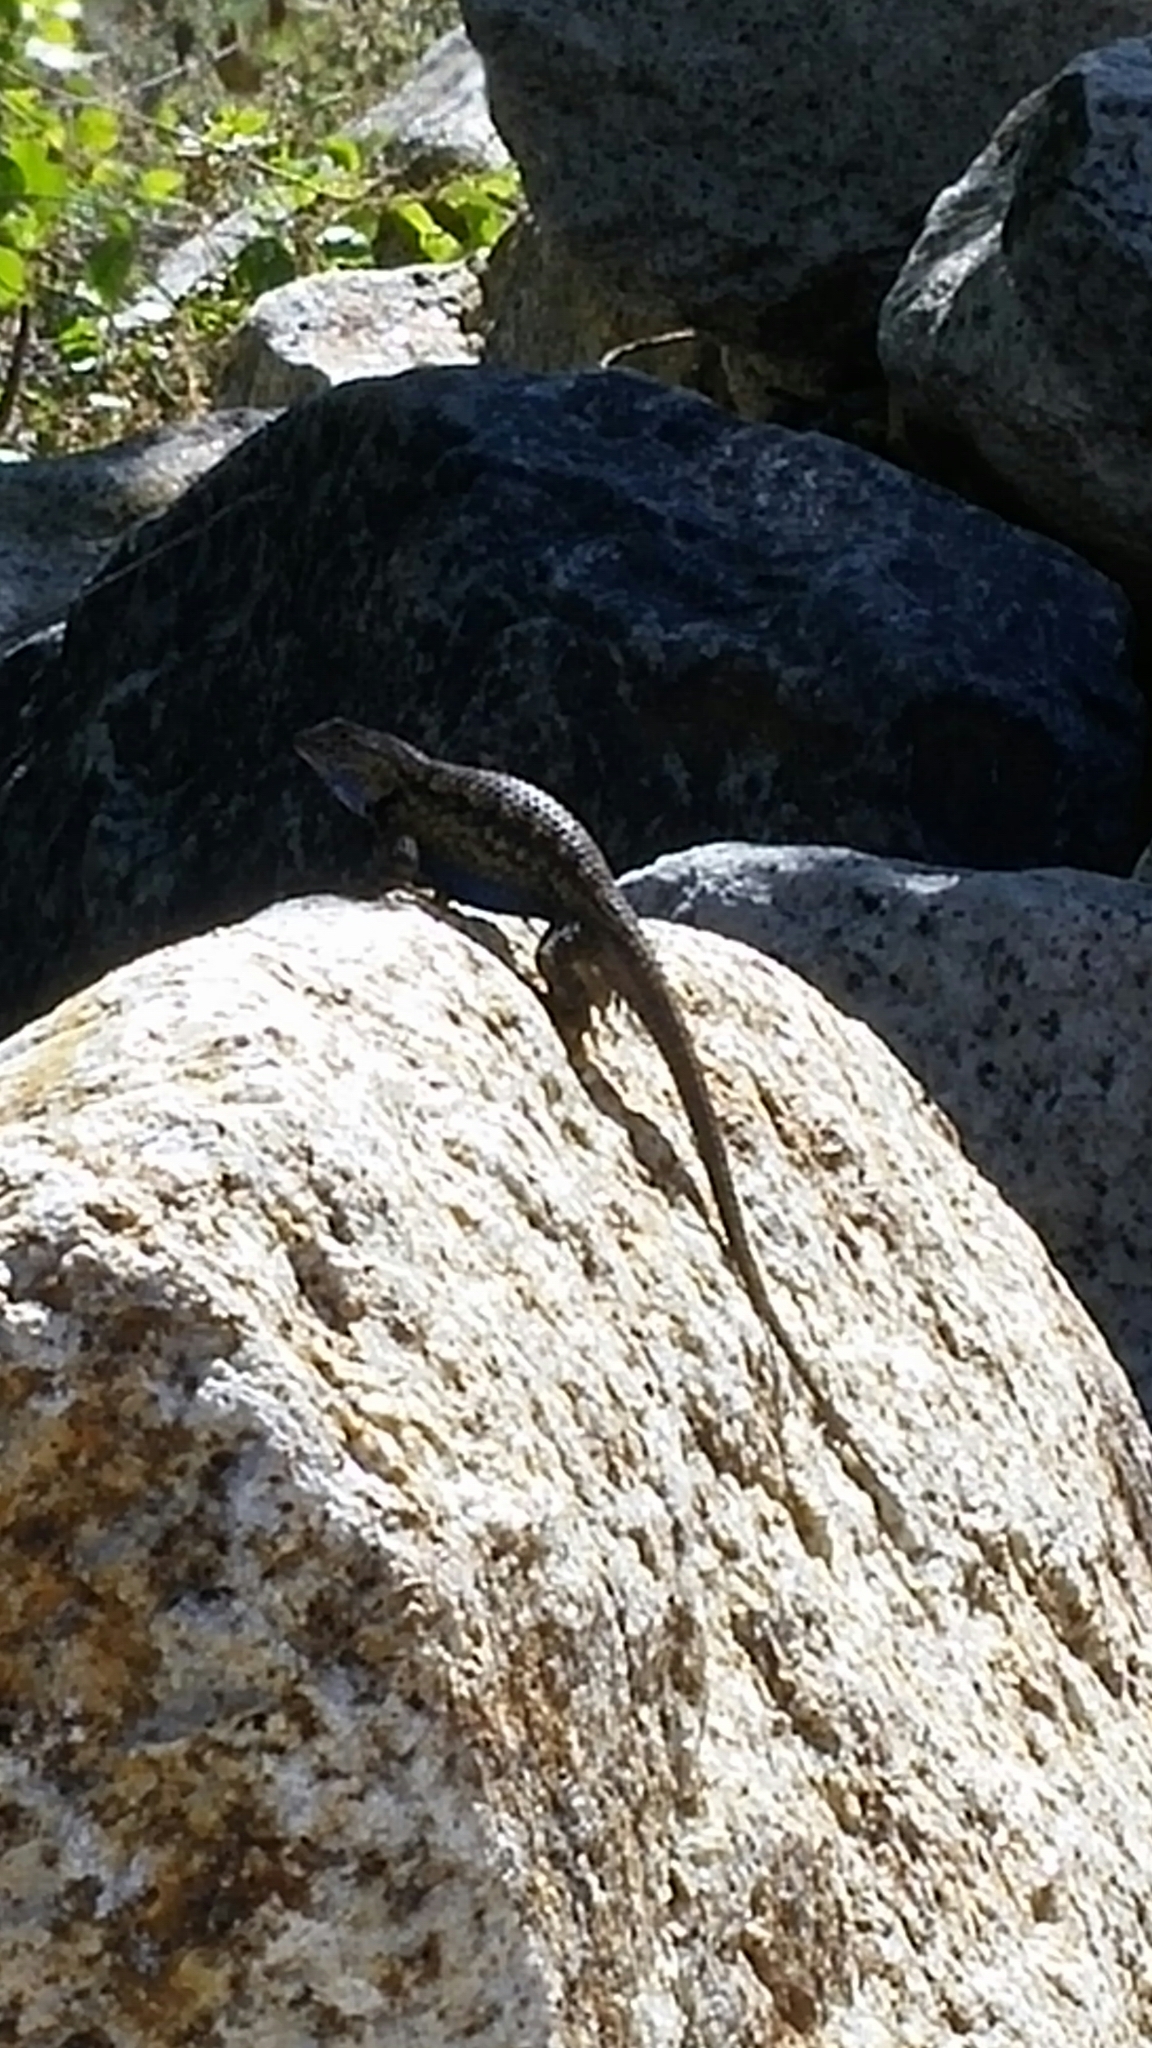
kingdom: Animalia
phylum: Chordata
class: Squamata
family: Phrynosomatidae
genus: Sceloporus
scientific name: Sceloporus occidentalis
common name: Western fence lizard
